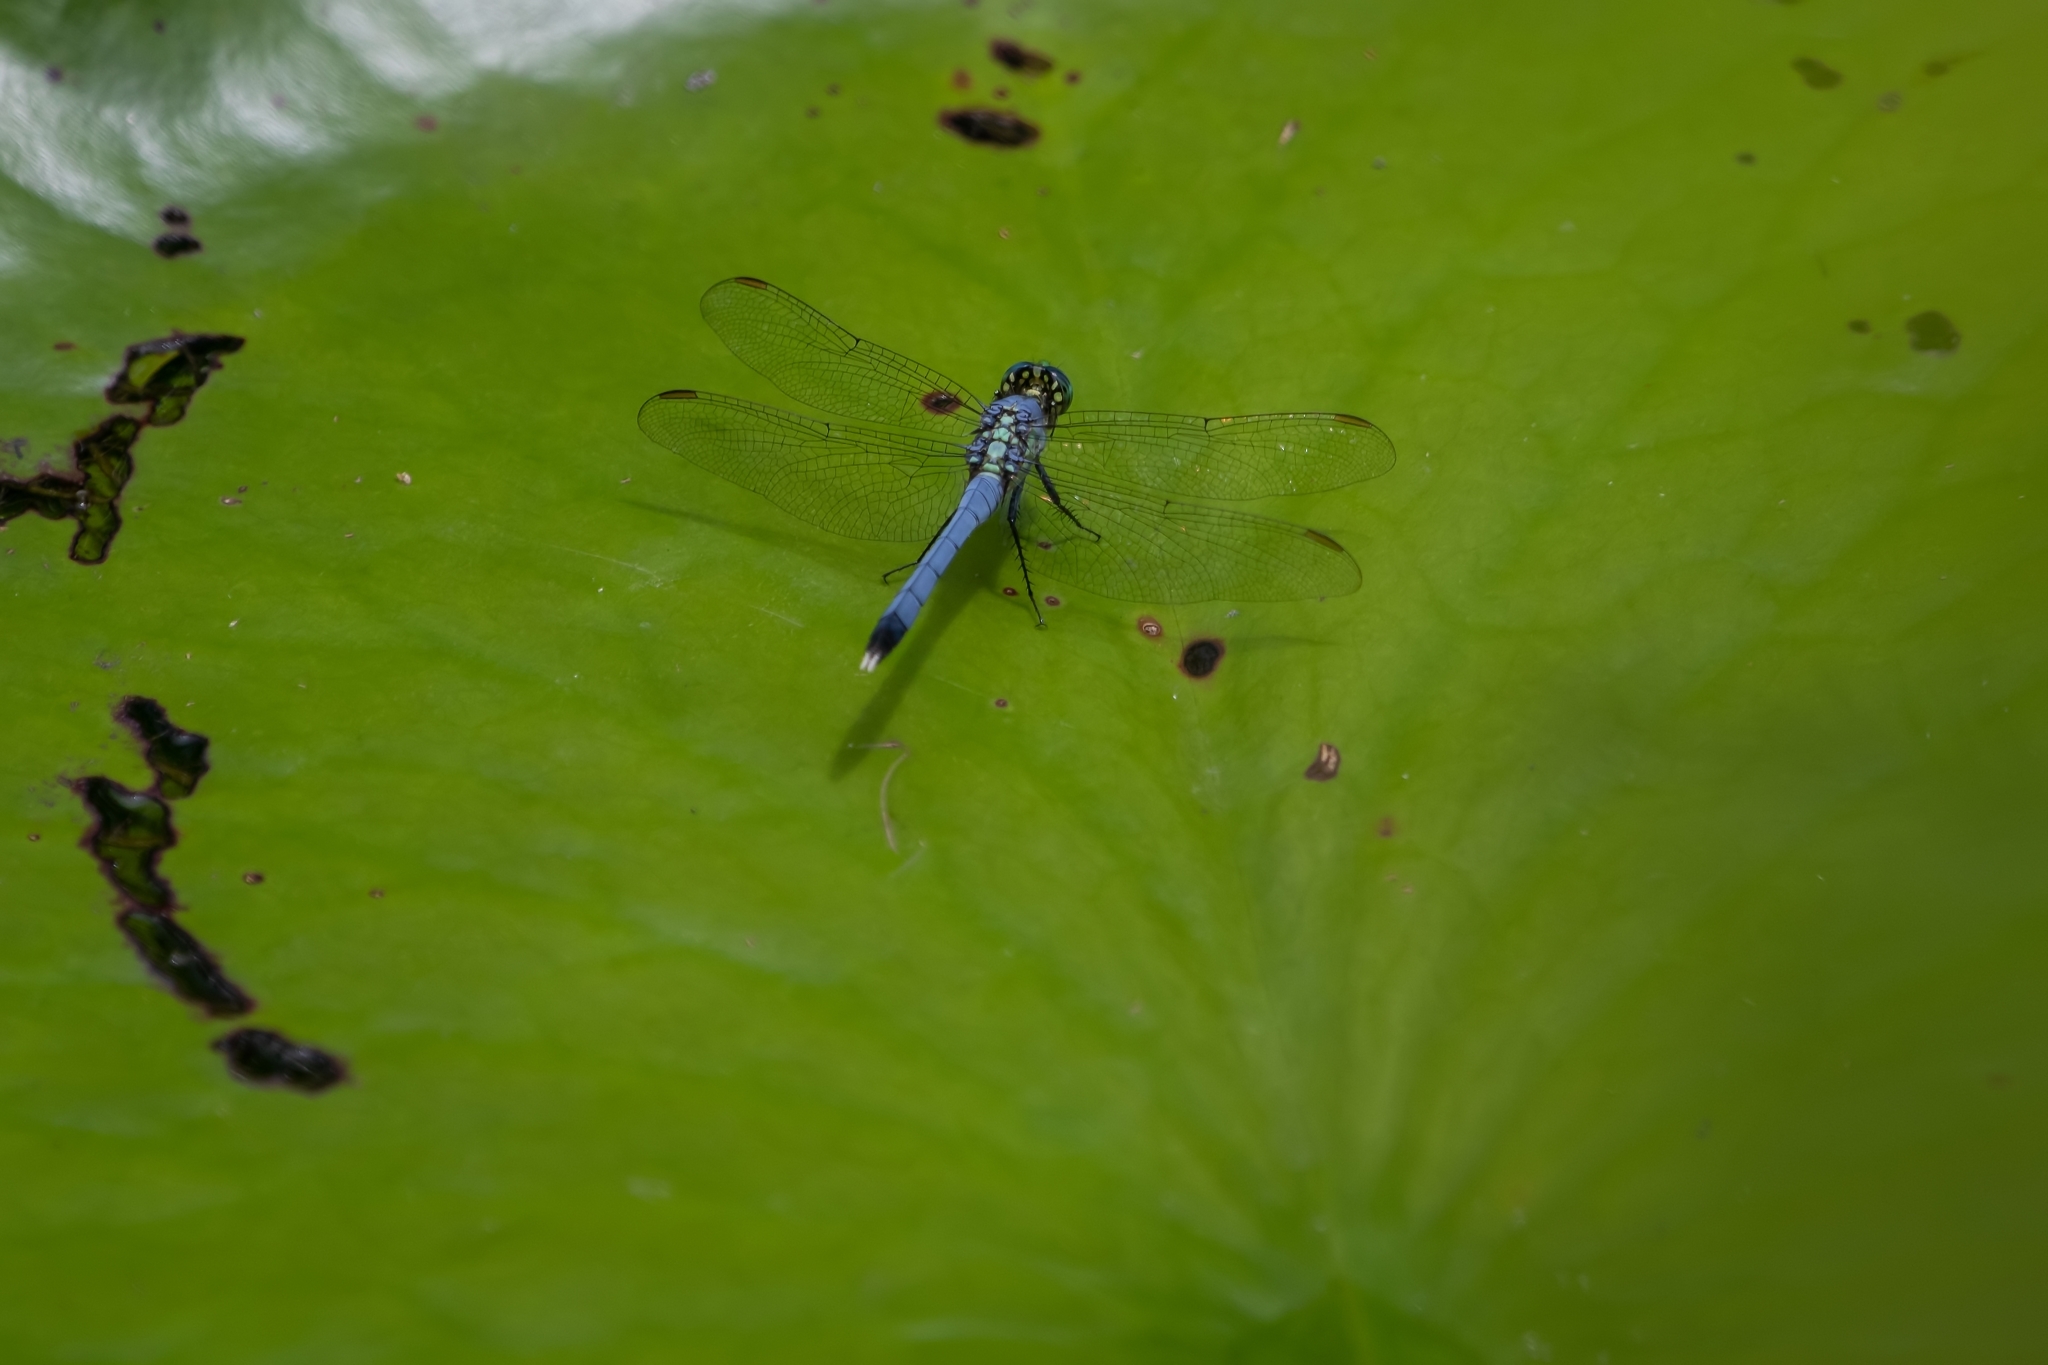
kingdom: Animalia
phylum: Arthropoda
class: Insecta
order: Odonata
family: Libellulidae
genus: Erythemis
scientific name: Erythemis simplicicollis
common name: Eastern pondhawk
